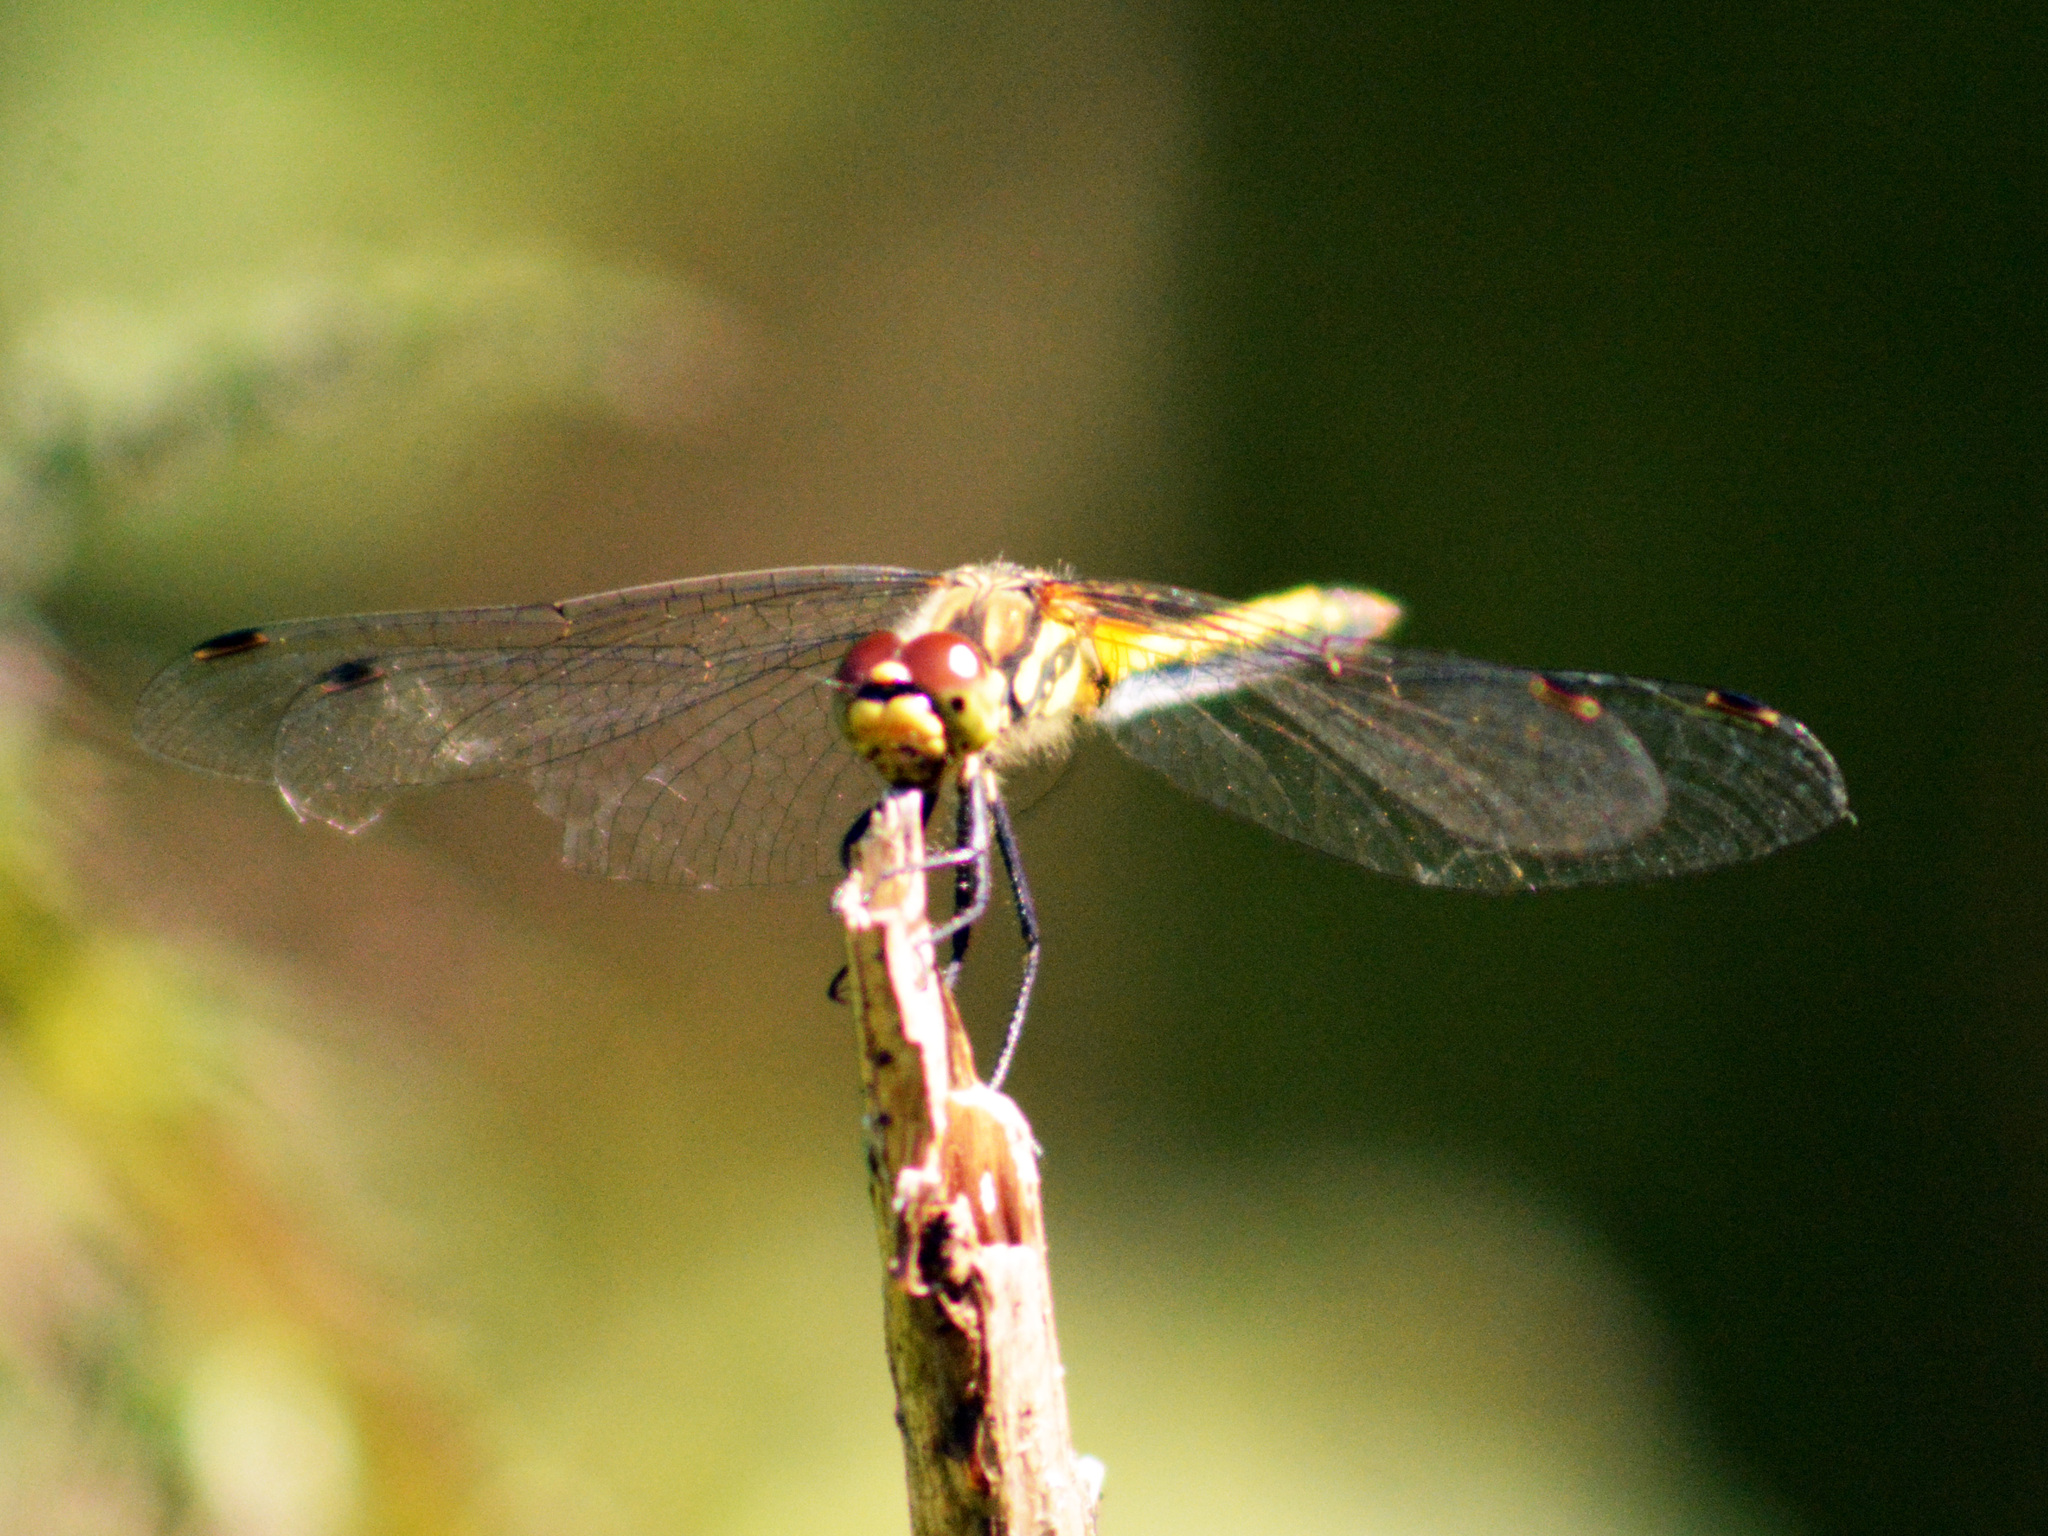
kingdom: Animalia
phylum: Arthropoda
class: Insecta
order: Odonata
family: Libellulidae
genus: Sympetrum
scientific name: Sympetrum danae
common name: Black darter
